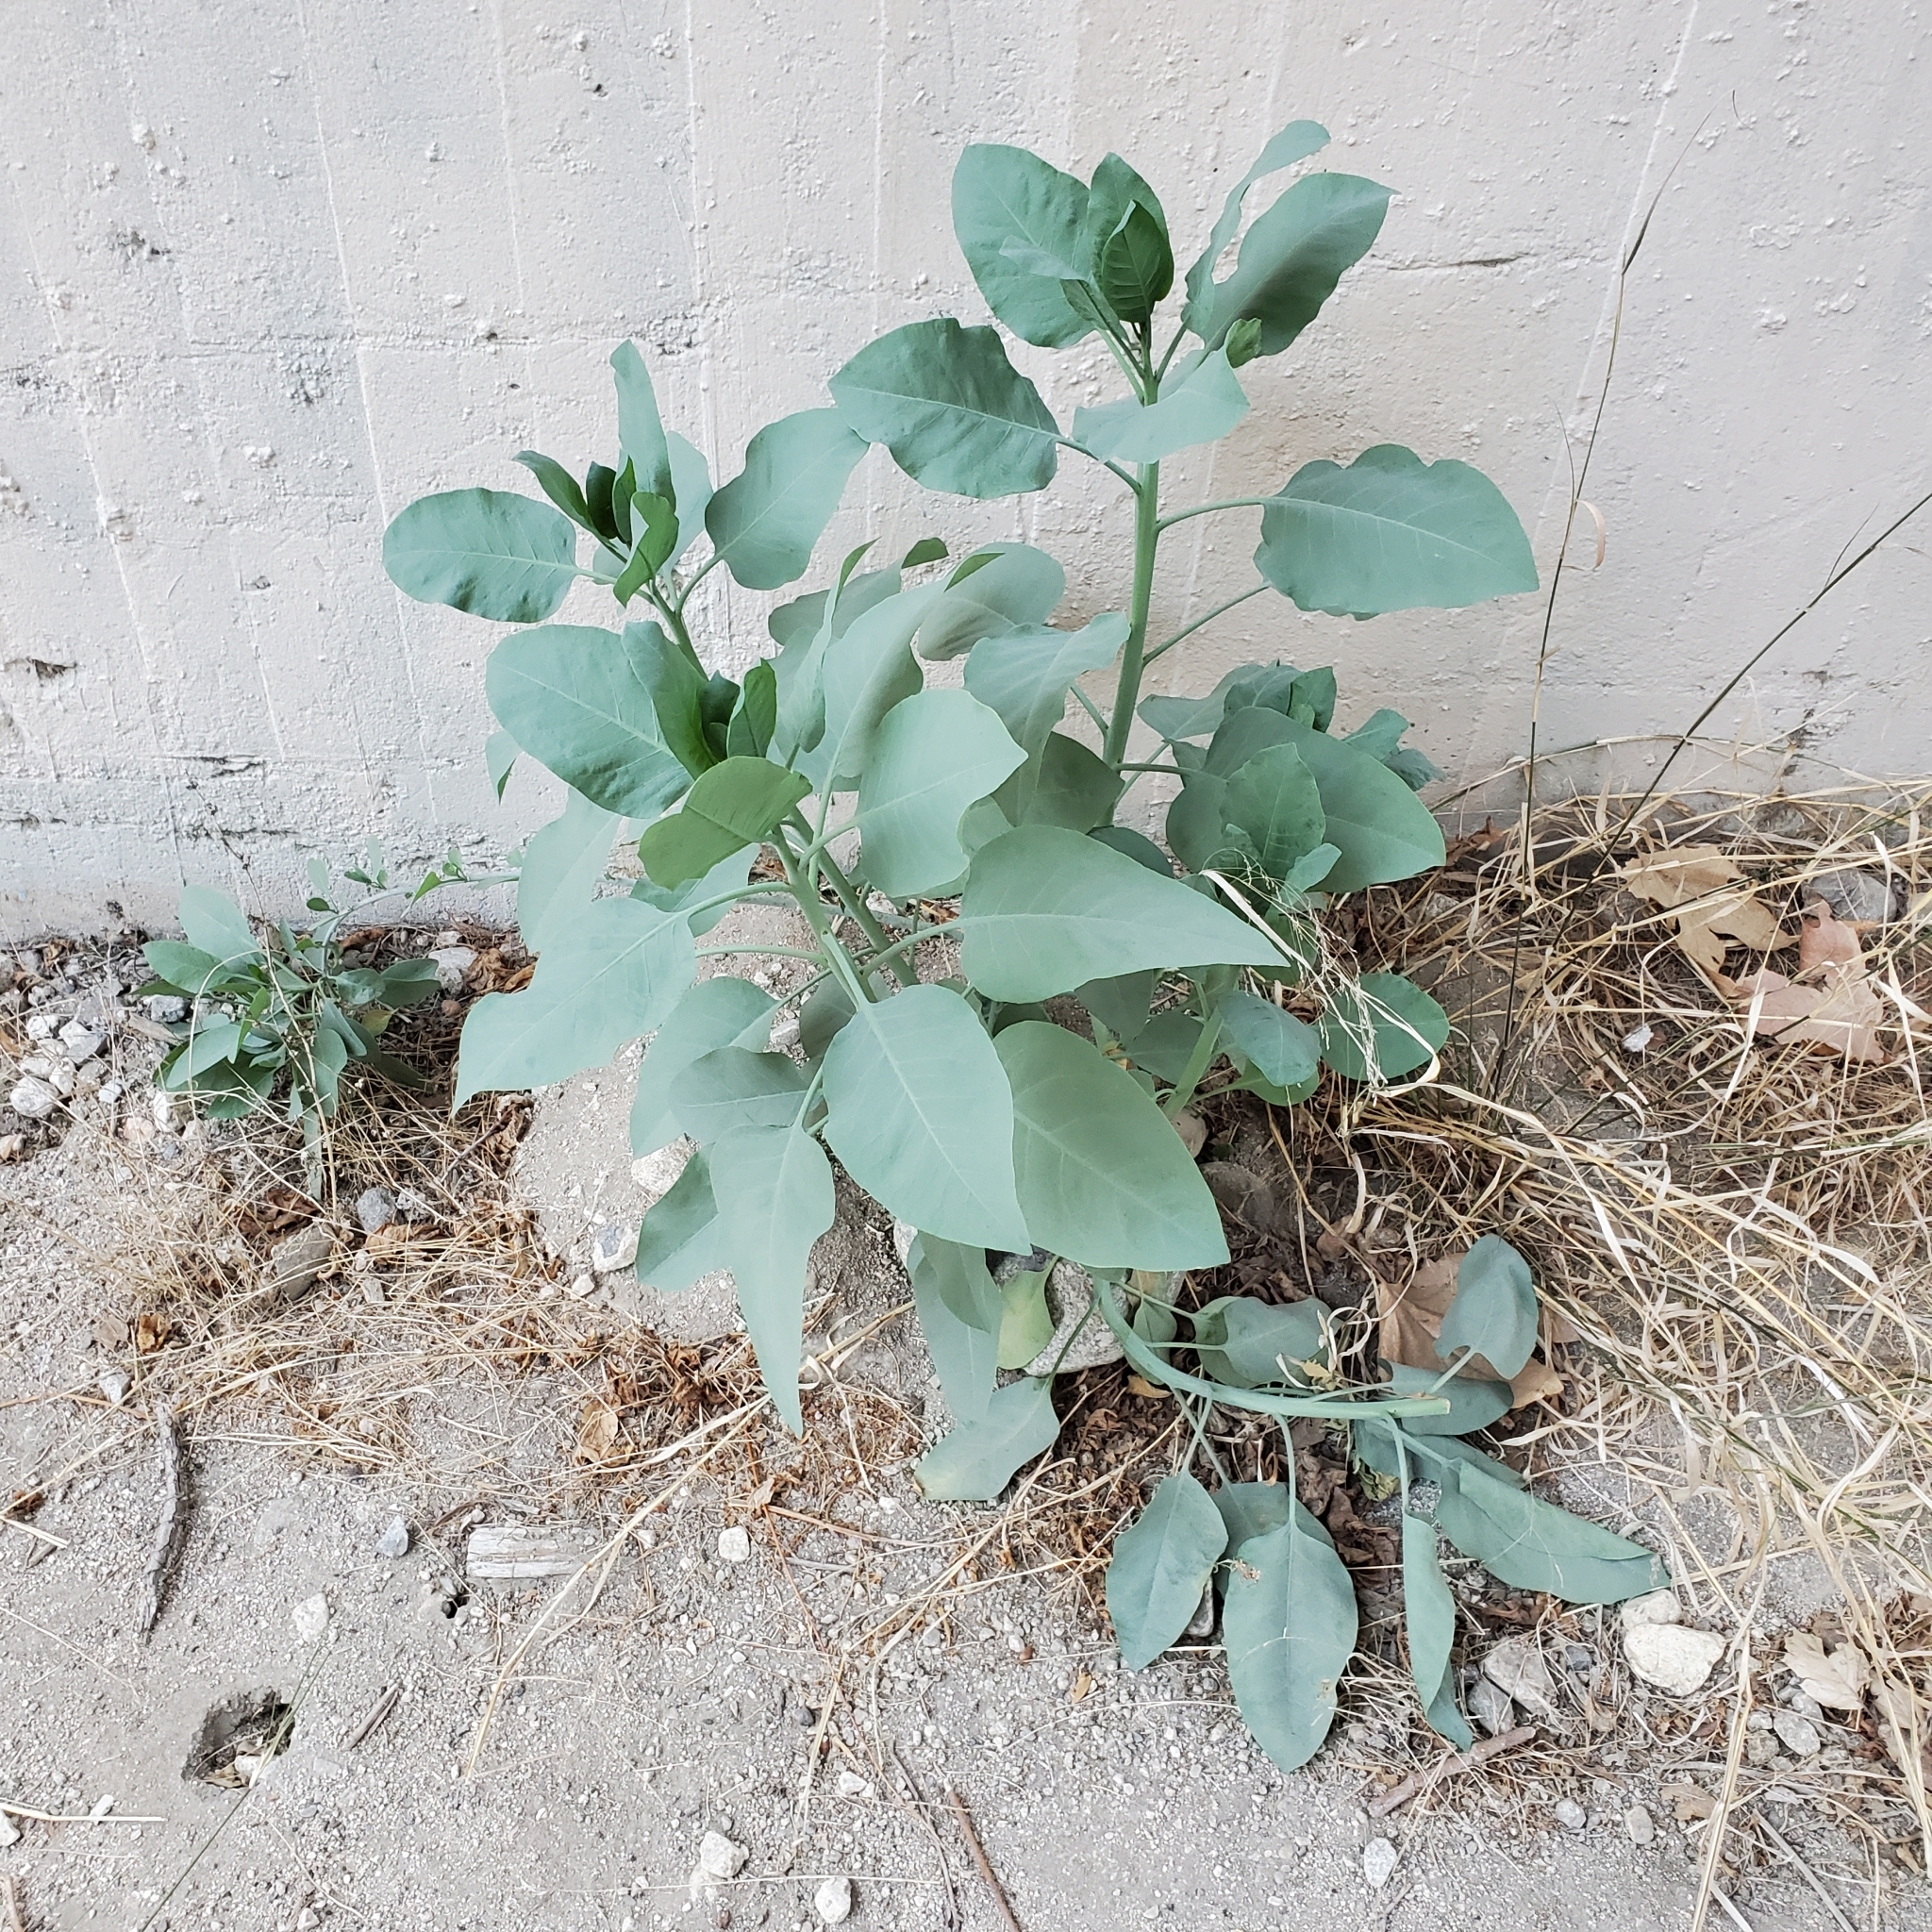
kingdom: Plantae
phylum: Tracheophyta
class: Magnoliopsida
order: Solanales
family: Solanaceae
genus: Nicotiana
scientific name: Nicotiana glauca
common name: Tree tobacco
